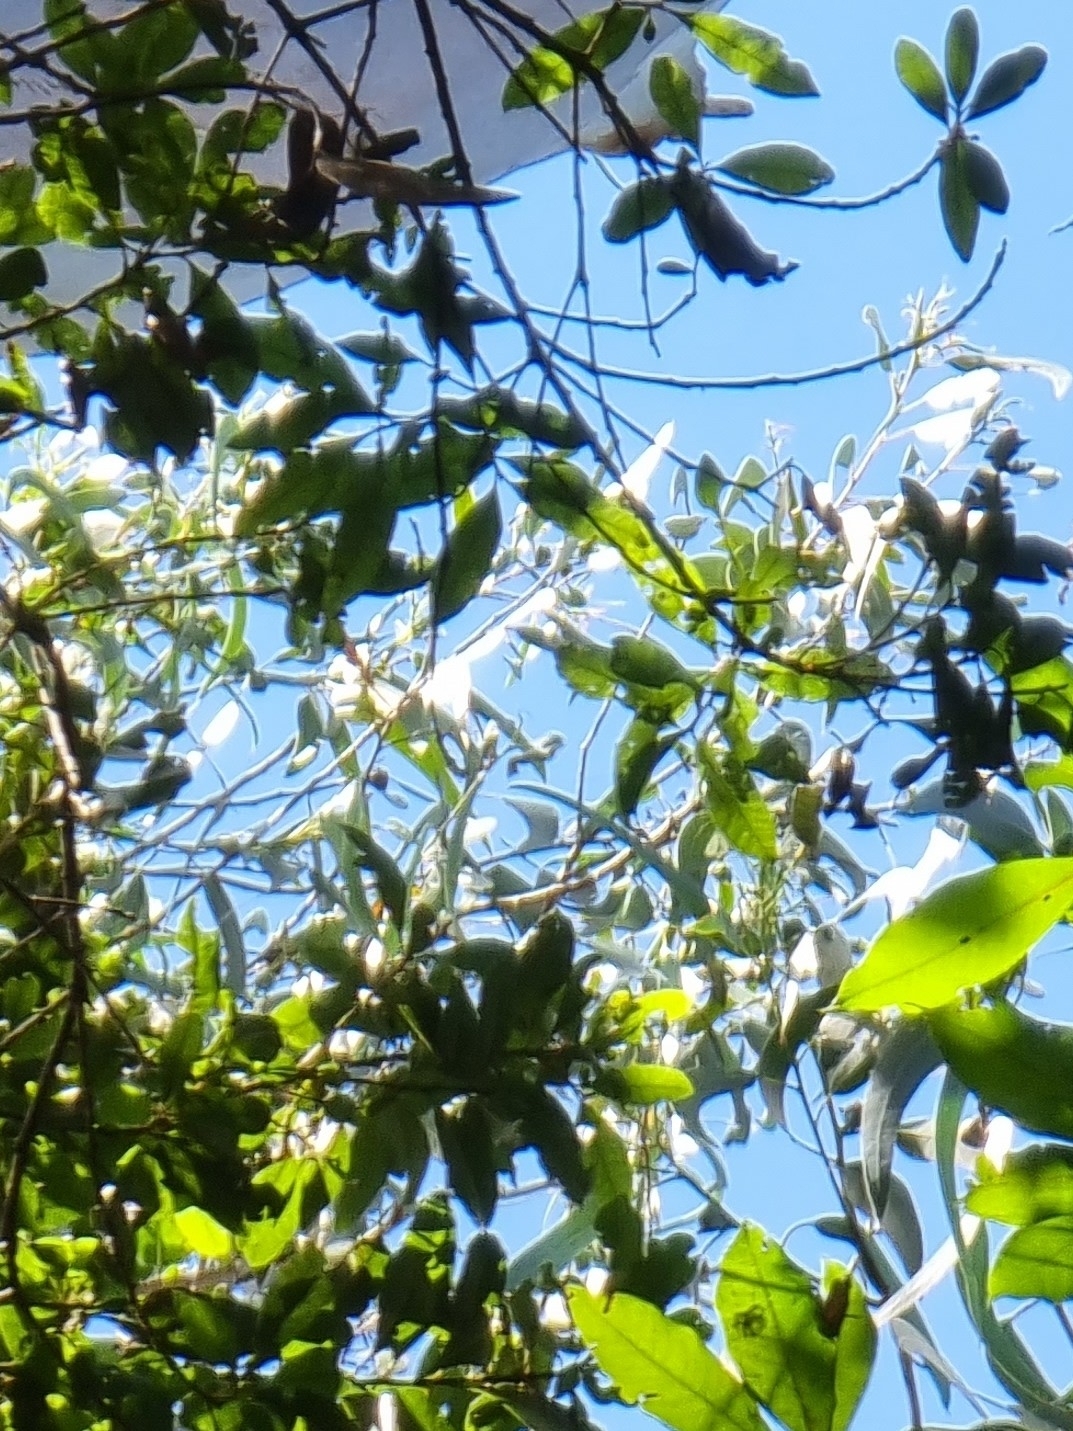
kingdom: Plantae
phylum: Tracheophyta
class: Magnoliopsida
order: Myrtales
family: Myrtaceae
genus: Eucalyptus
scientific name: Eucalyptus globulus
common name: Southern blue-gum
